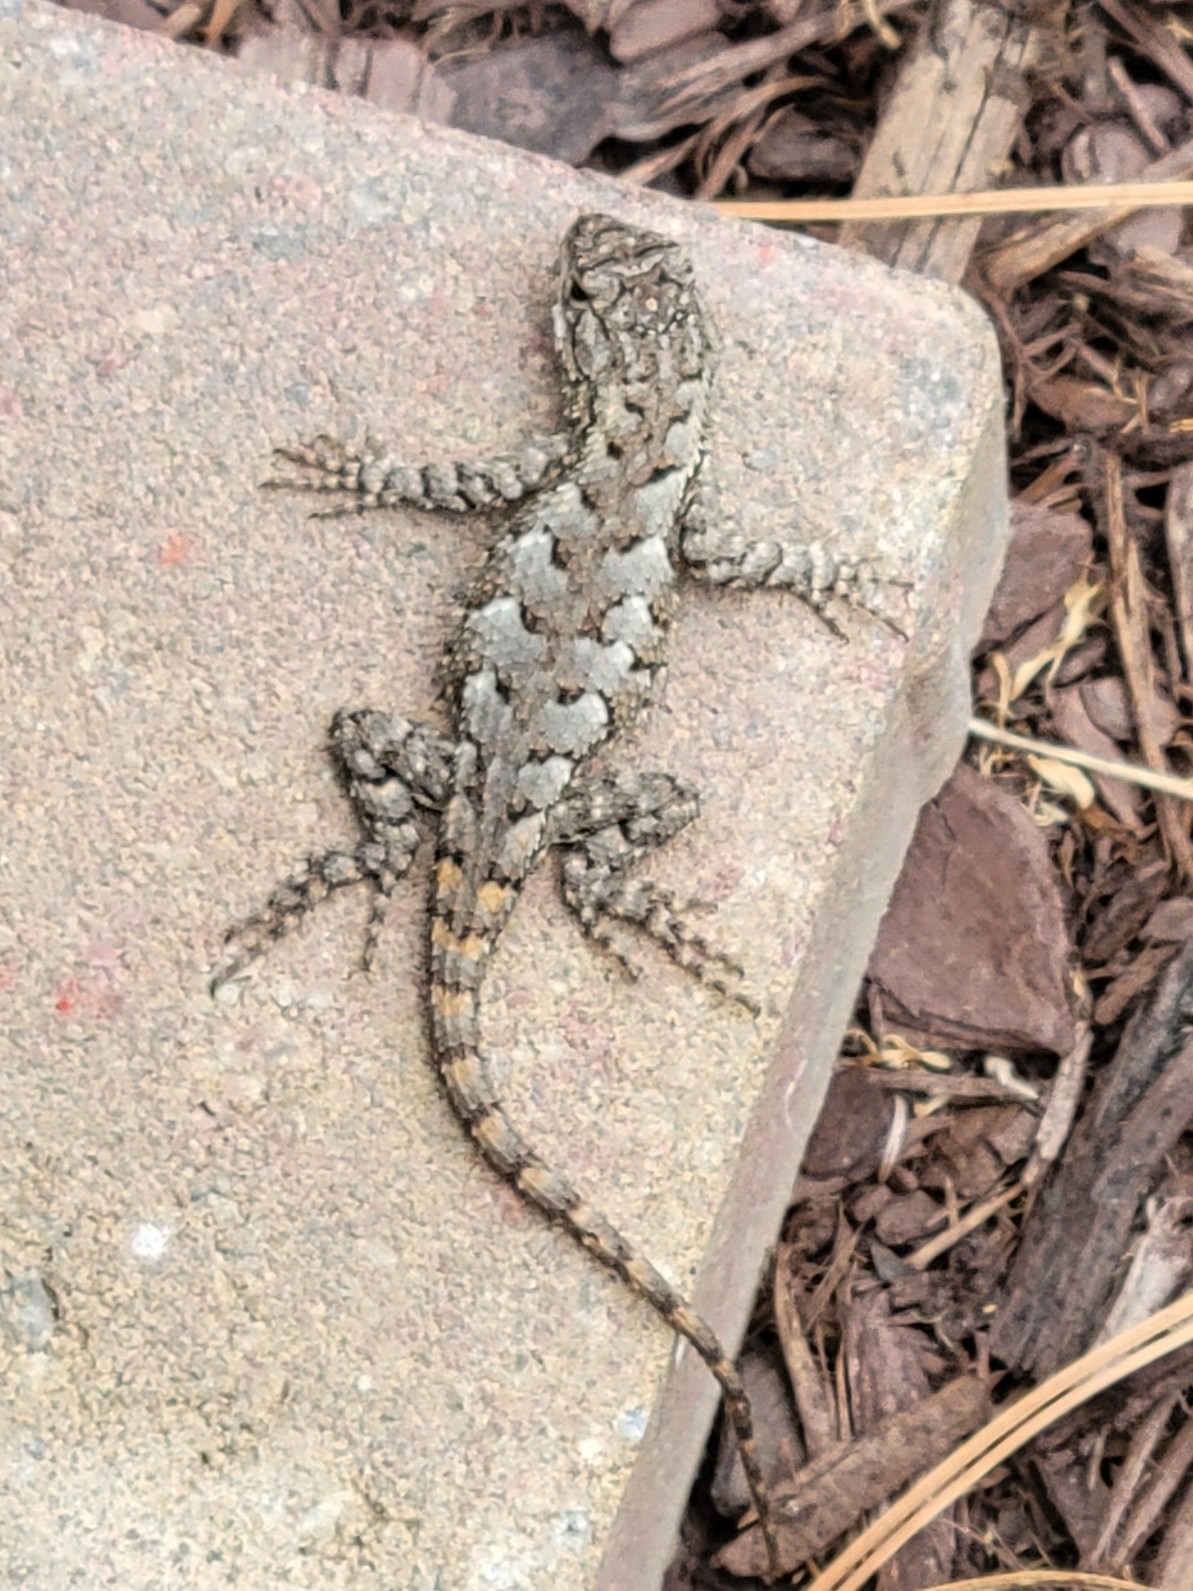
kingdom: Animalia
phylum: Chordata
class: Squamata
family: Phrynosomatidae
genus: Sceloporus
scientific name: Sceloporus undulatus
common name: Eastern fence lizard
